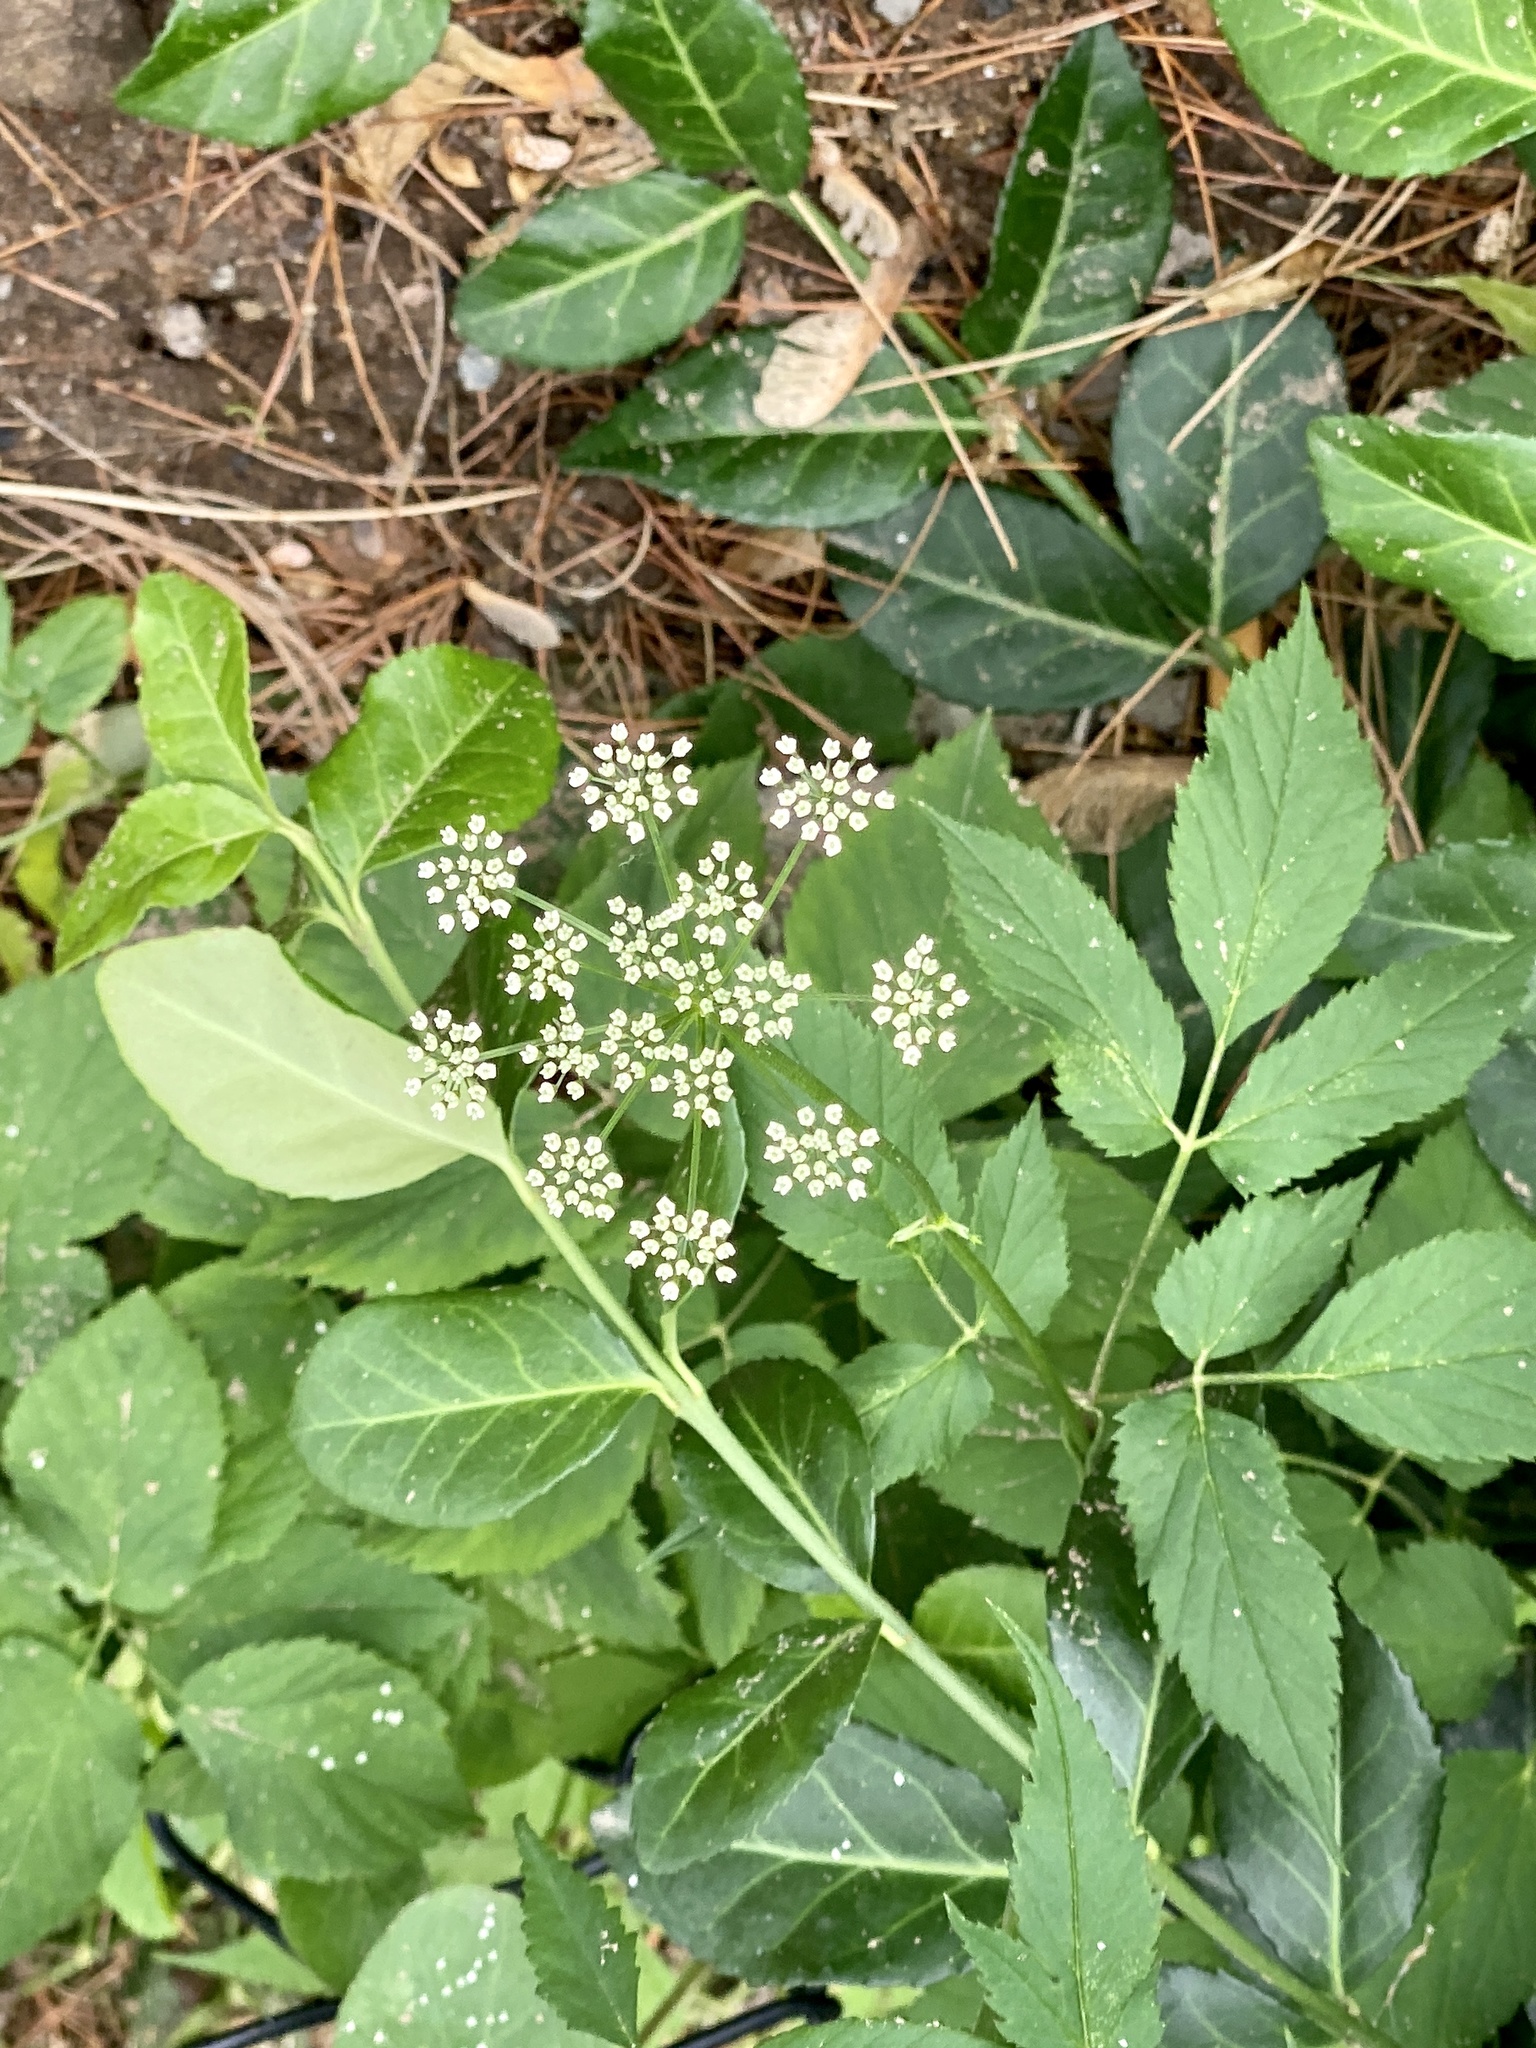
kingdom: Plantae
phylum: Tracheophyta
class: Magnoliopsida
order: Apiales
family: Apiaceae
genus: Aegopodium
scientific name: Aegopodium podagraria
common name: Ground-elder
